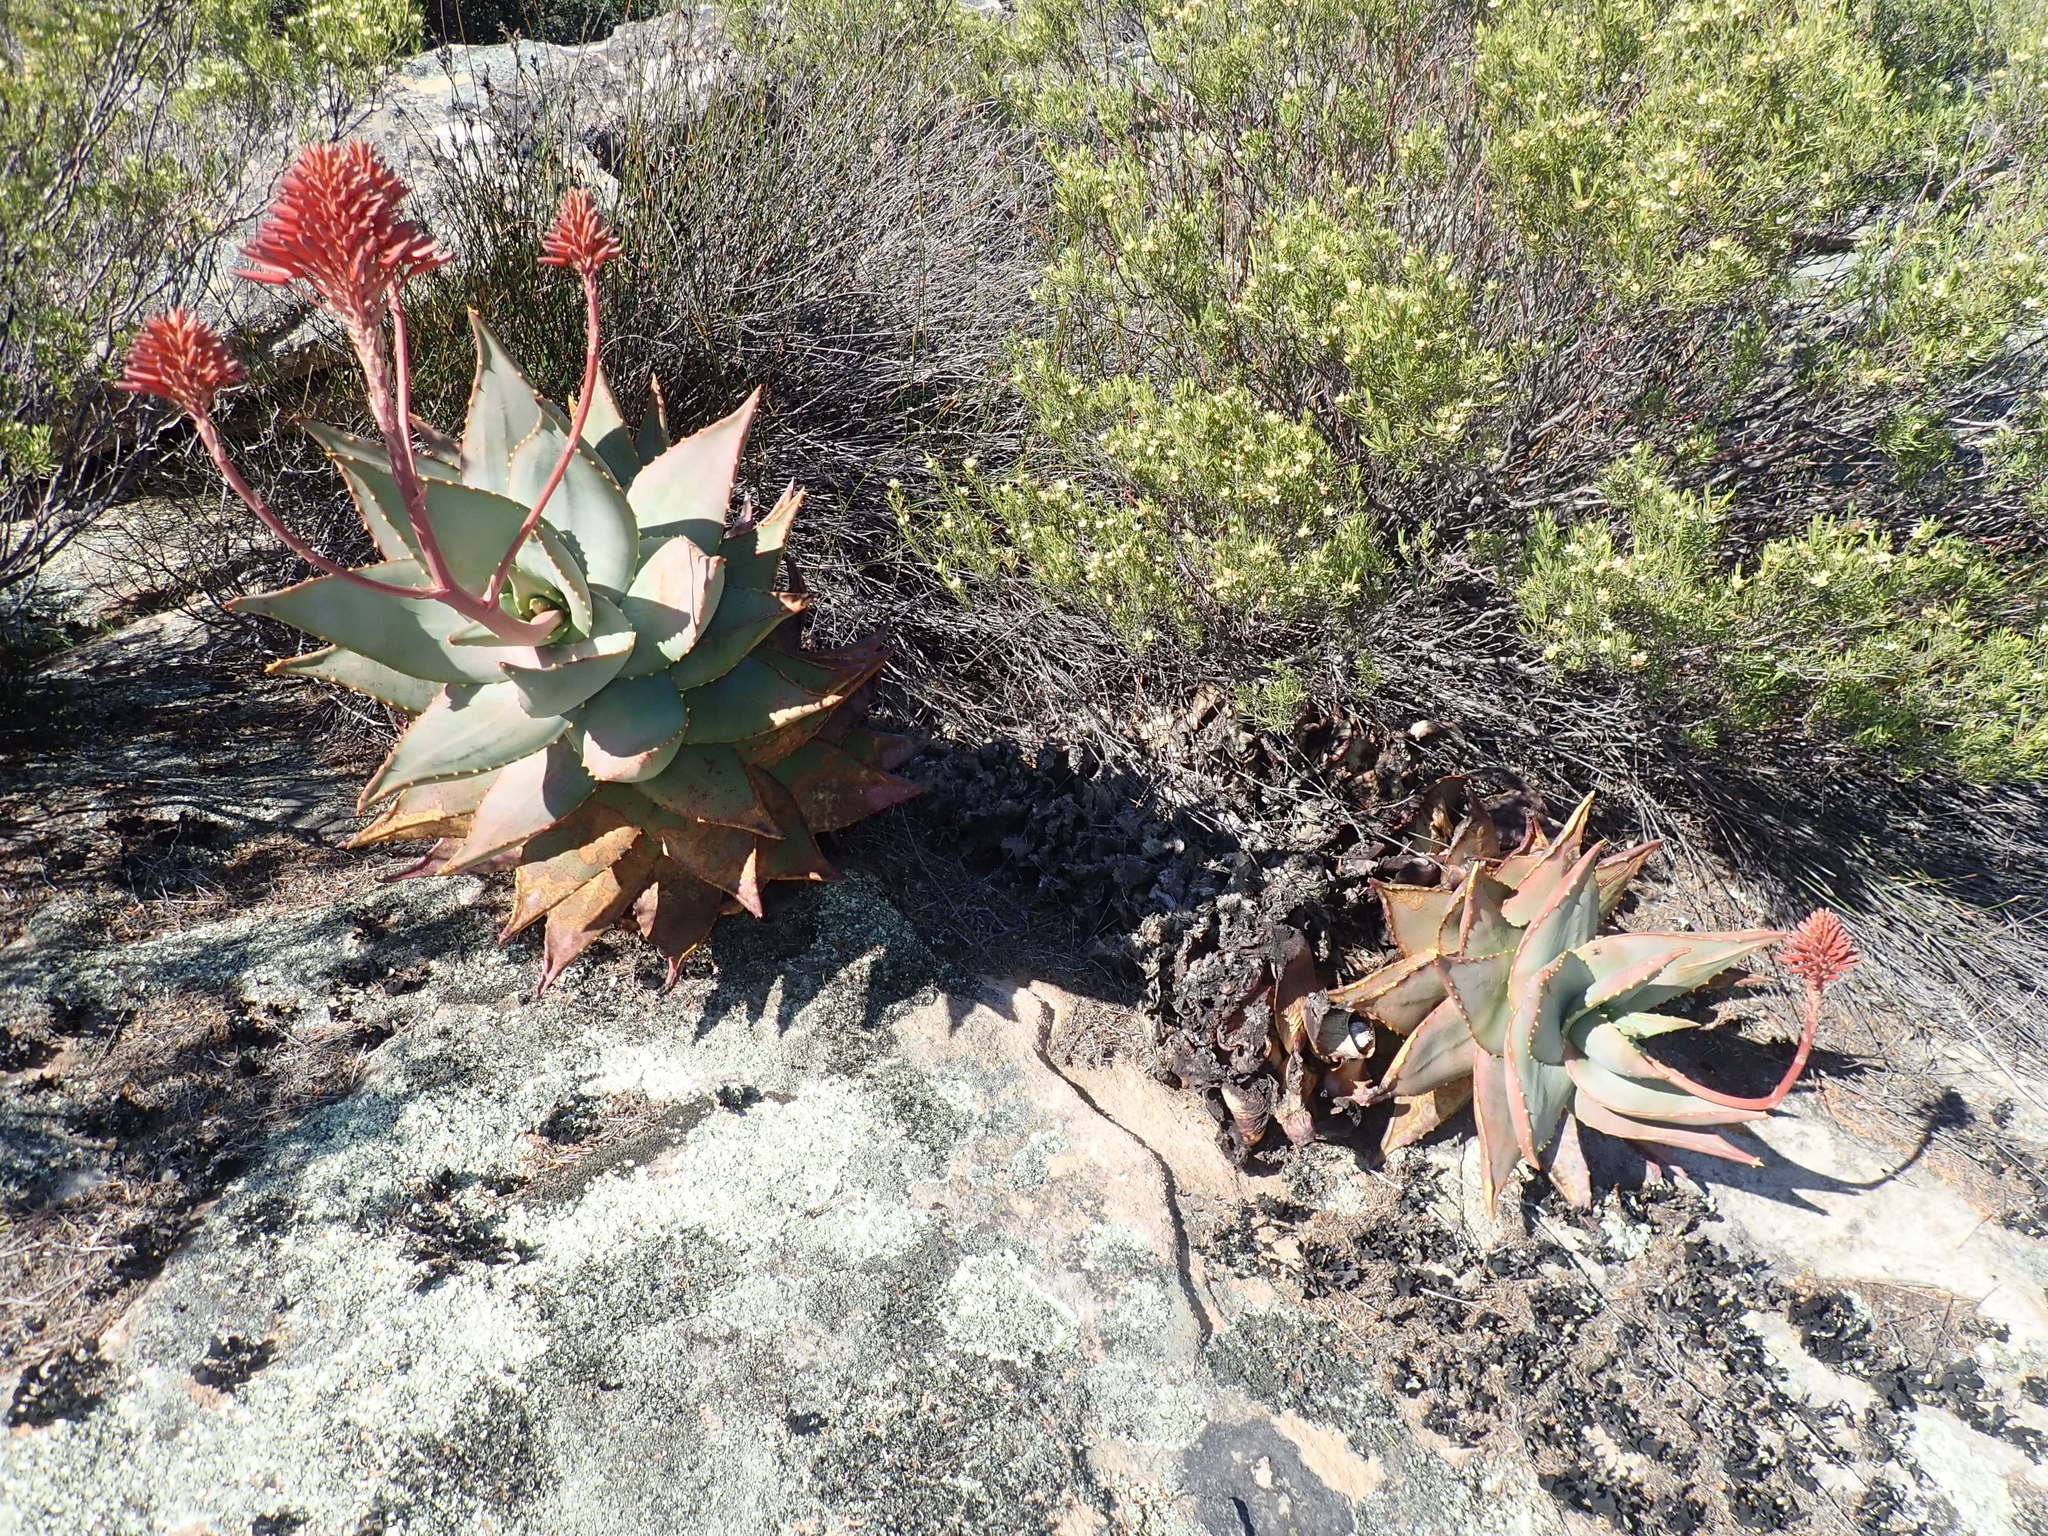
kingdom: Plantae
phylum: Tracheophyta
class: Liliopsida
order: Asparagales
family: Asphodelaceae
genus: Aloe
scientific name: Aloe perfoliata
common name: Mitra aloe
